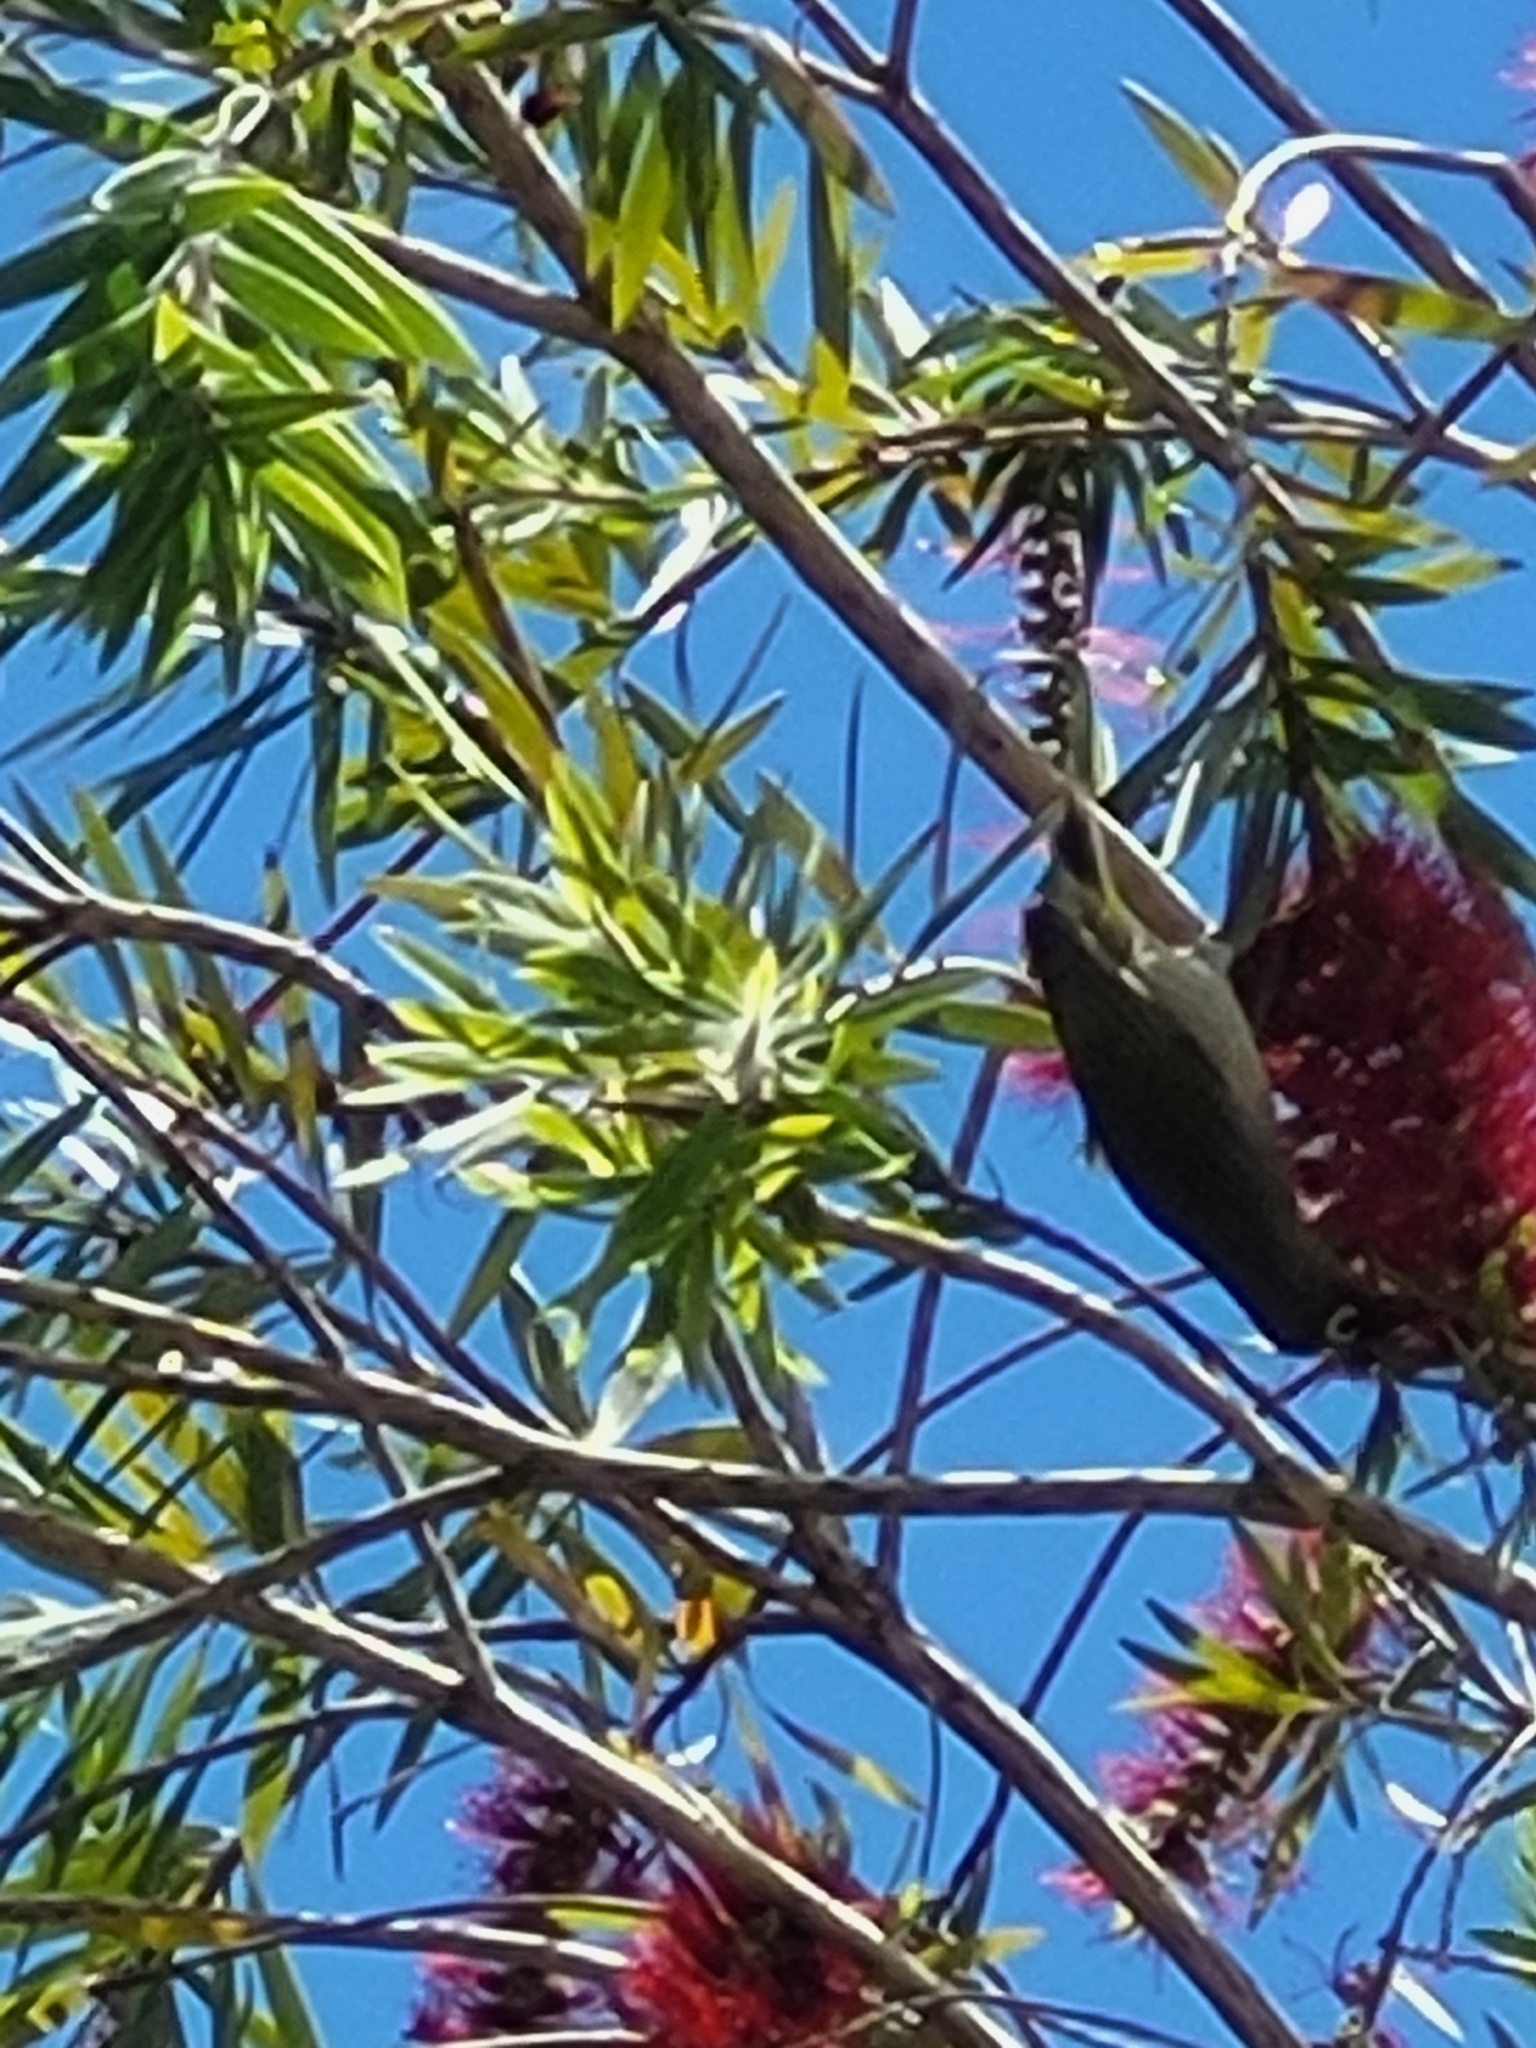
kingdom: Animalia
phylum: Chordata
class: Aves
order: Passeriformes
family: Zosteropidae
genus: Zosterops
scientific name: Zosterops olivaceus
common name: Reunion olive white-eye
